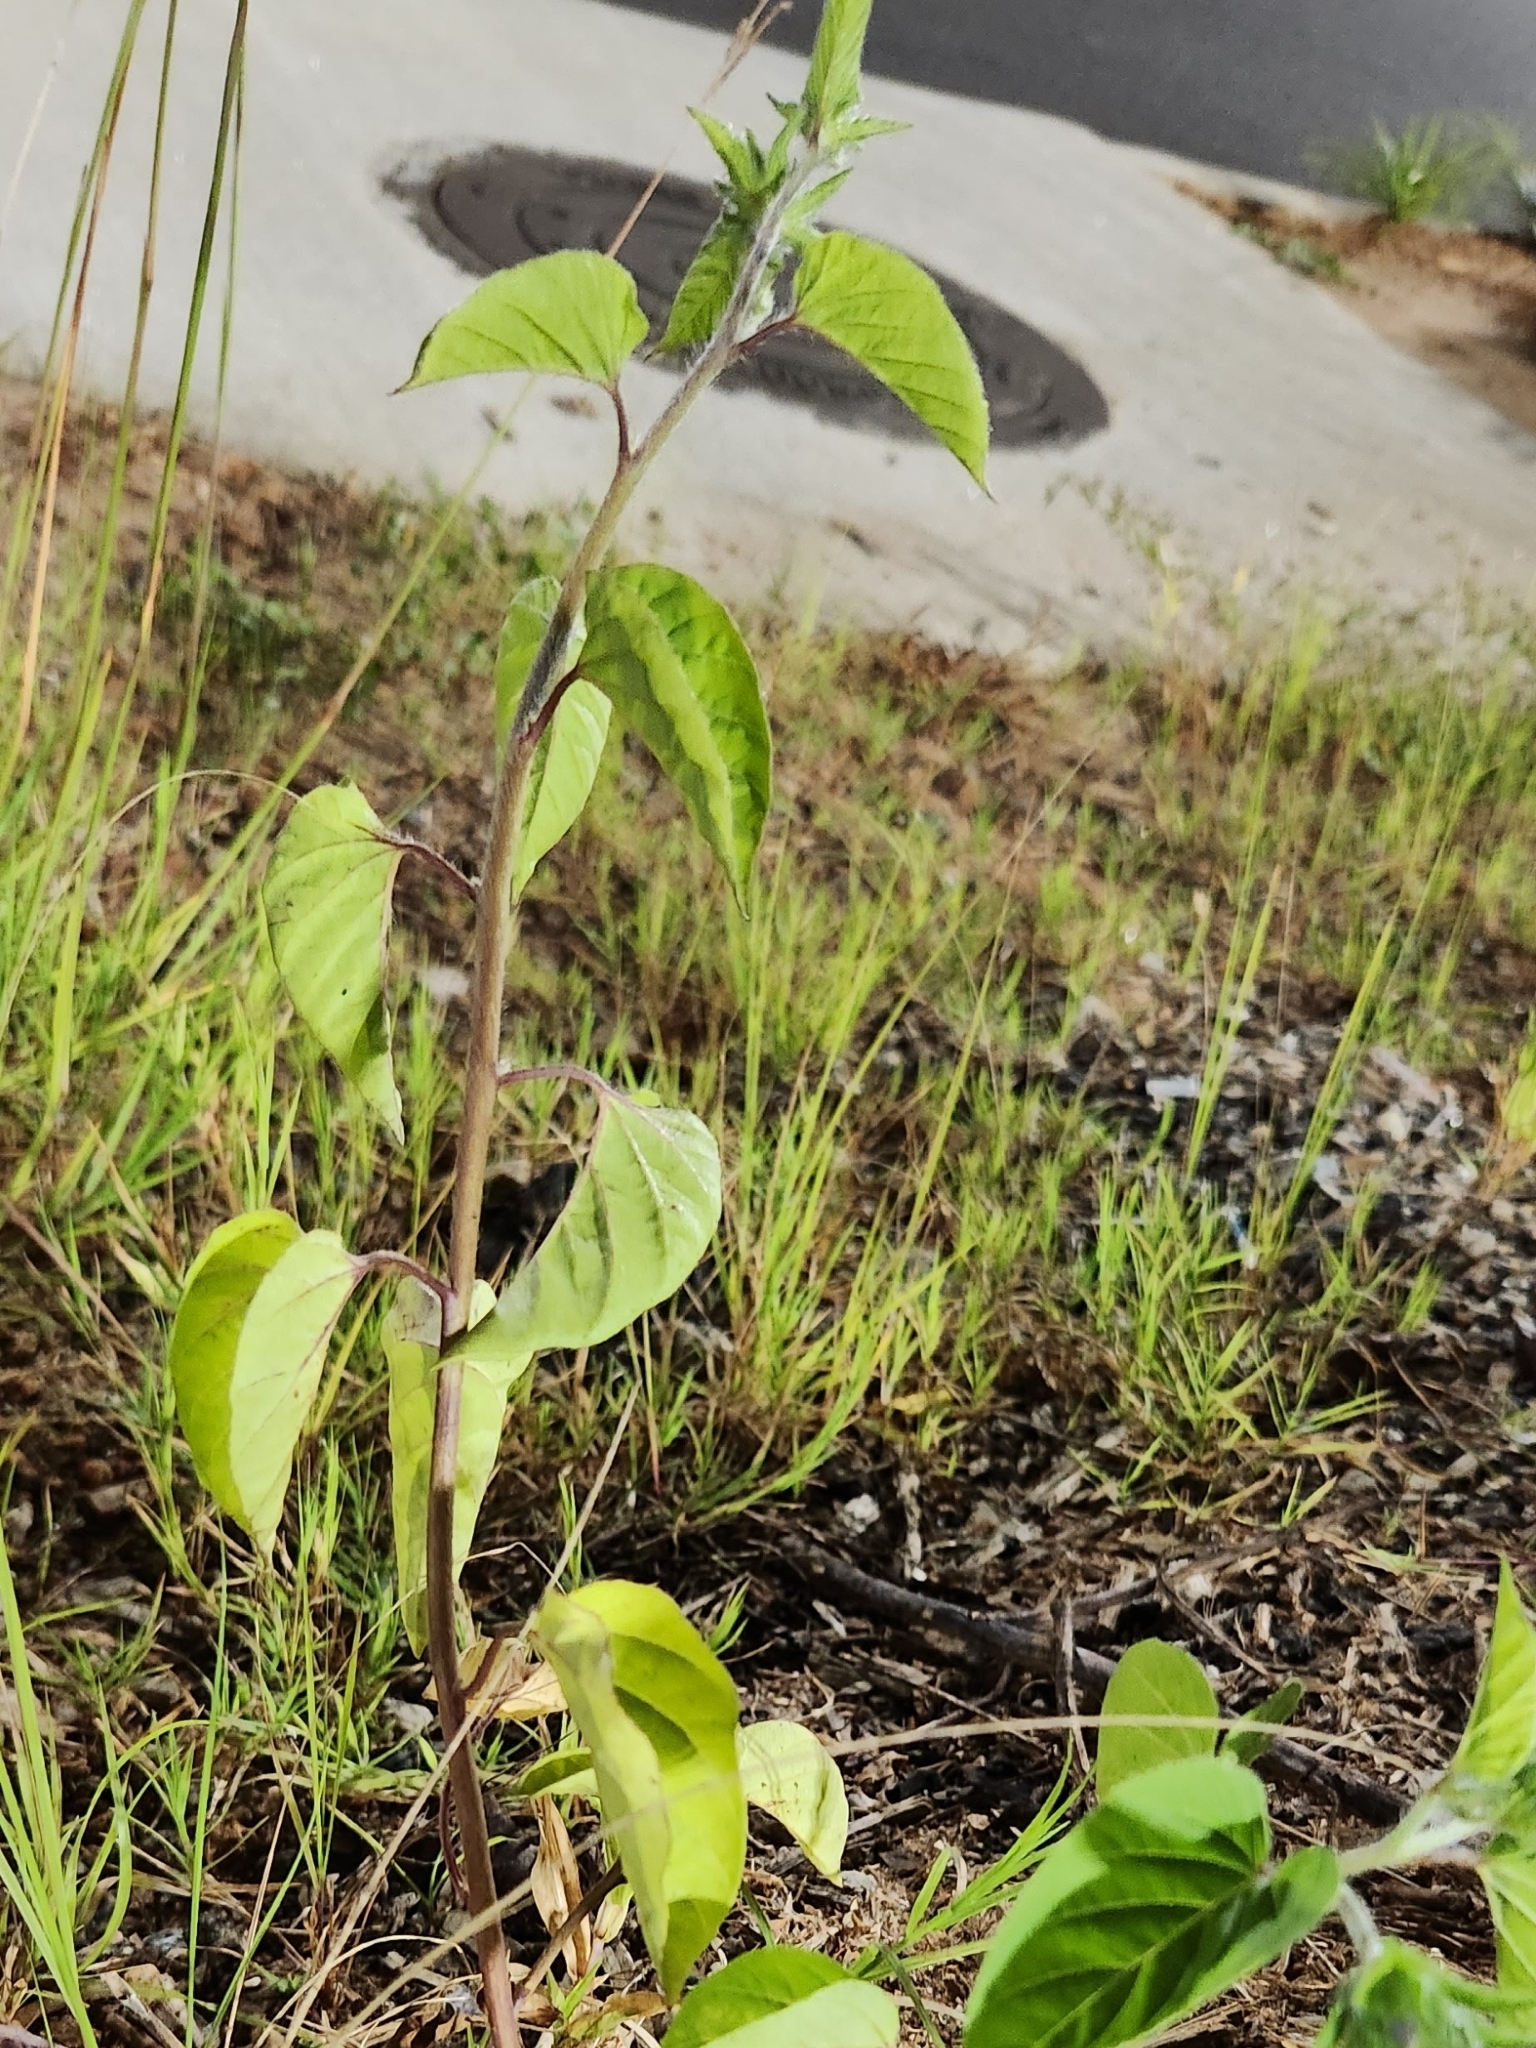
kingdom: Plantae
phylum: Tracheophyta
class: Magnoliopsida
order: Solanales
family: Convolvulaceae
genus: Jacquemontia
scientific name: Jacquemontia tamnifolia
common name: Hairy clustervine
